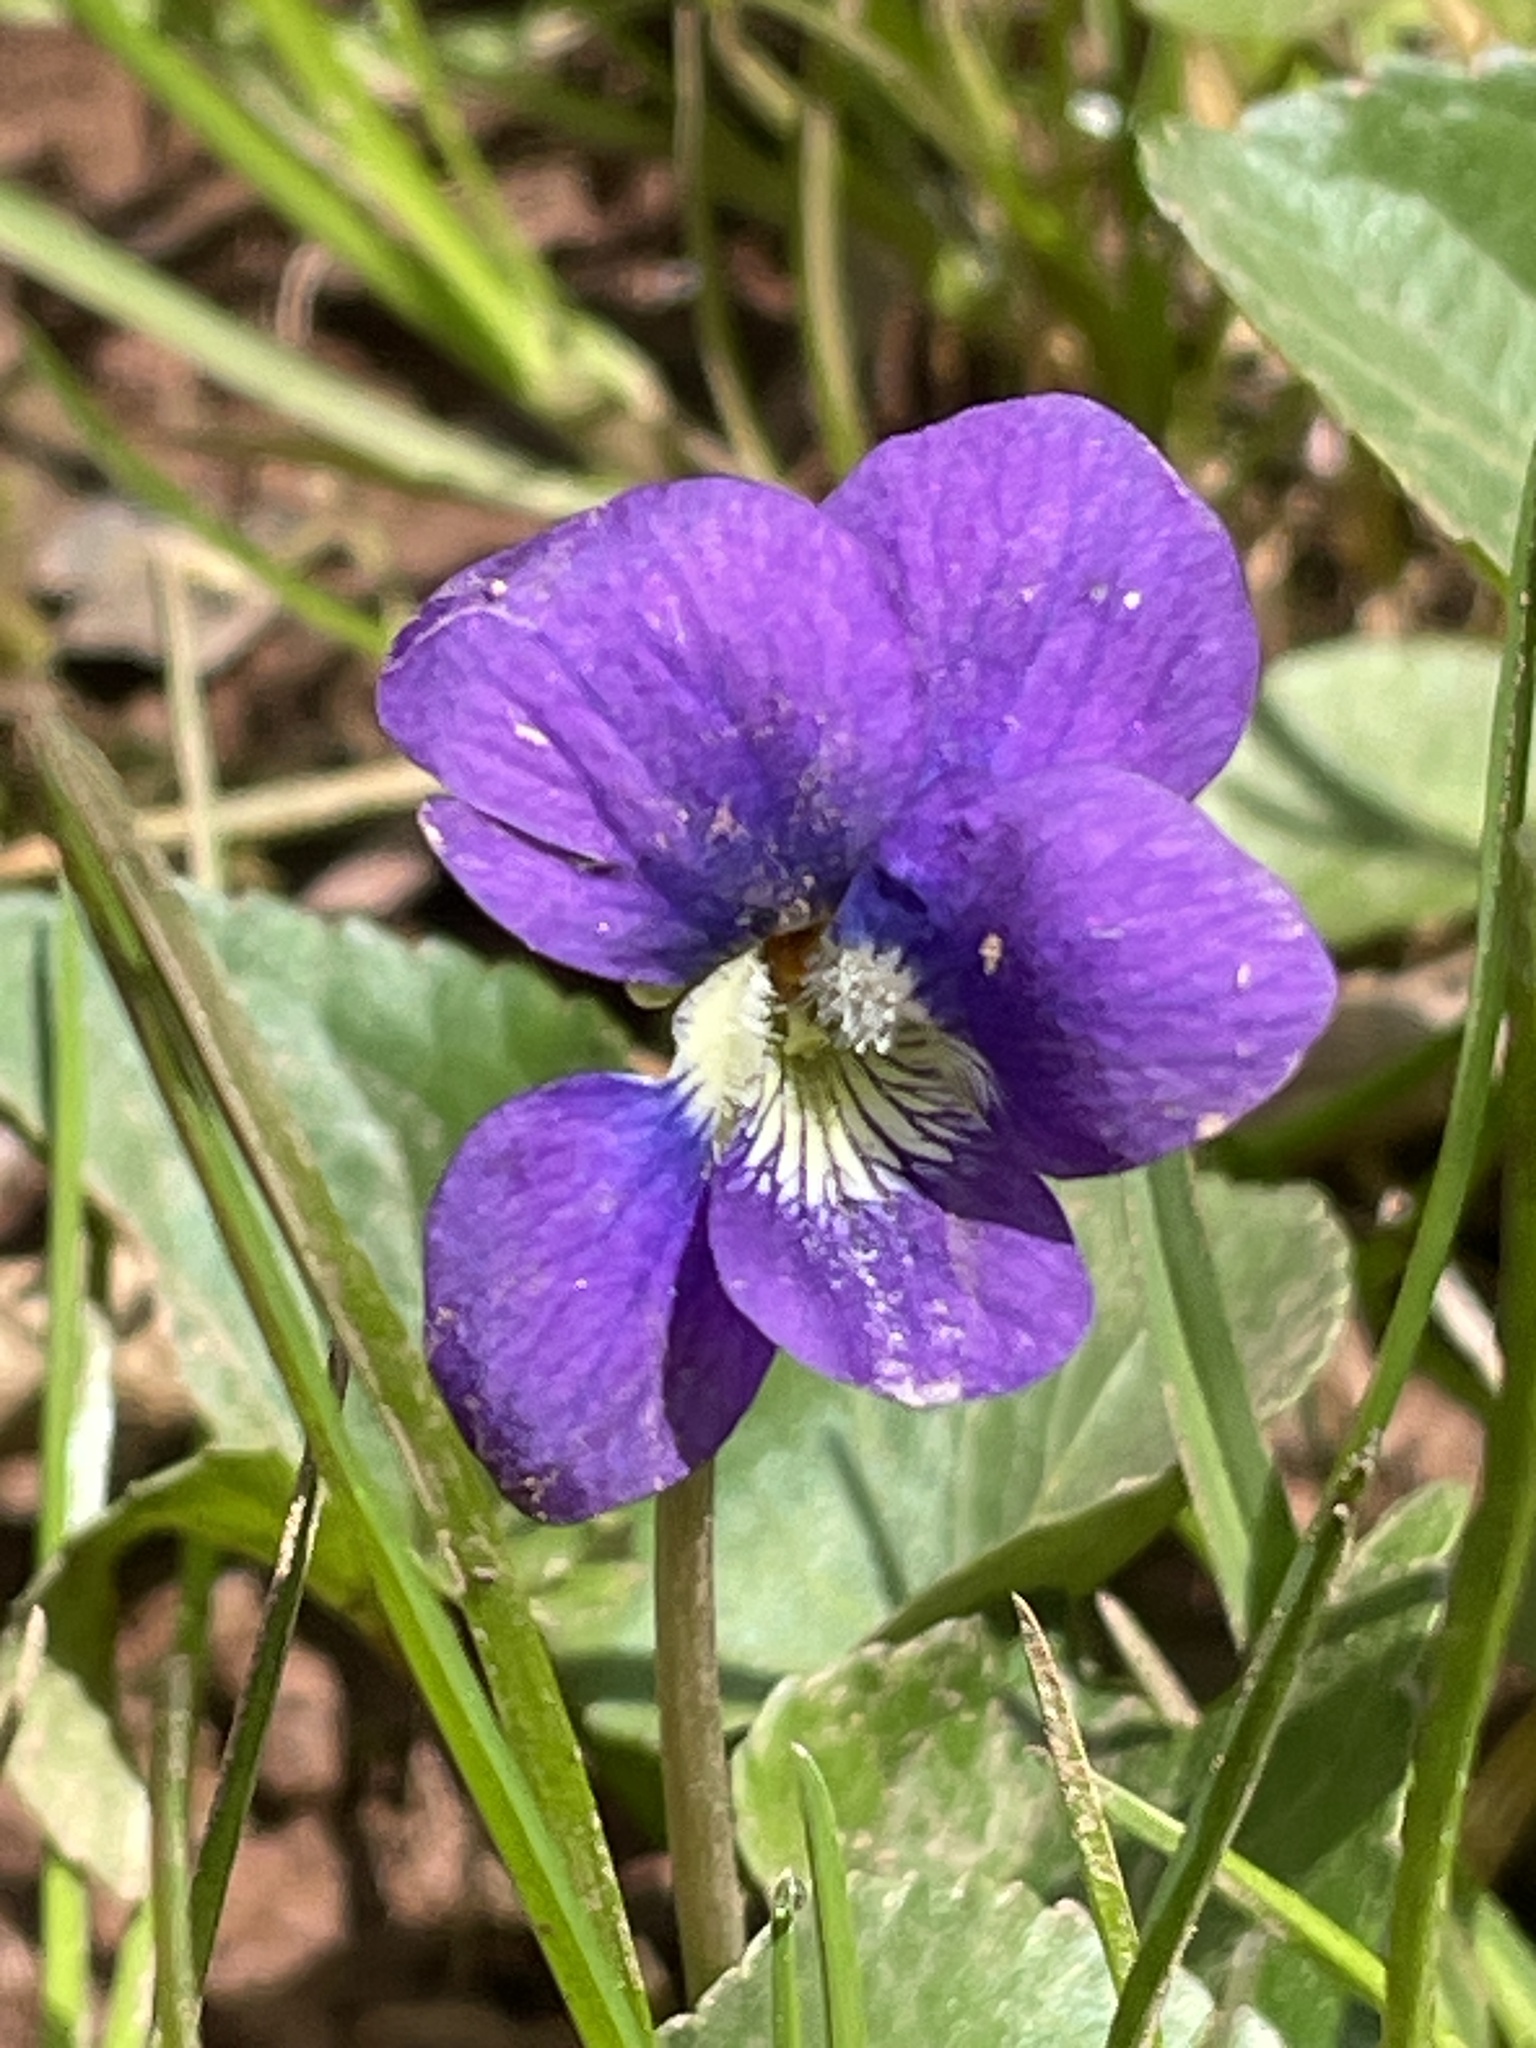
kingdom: Plantae
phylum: Tracheophyta
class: Magnoliopsida
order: Malpighiales
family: Violaceae
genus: Viola
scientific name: Viola sororia
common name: Dooryard violet
